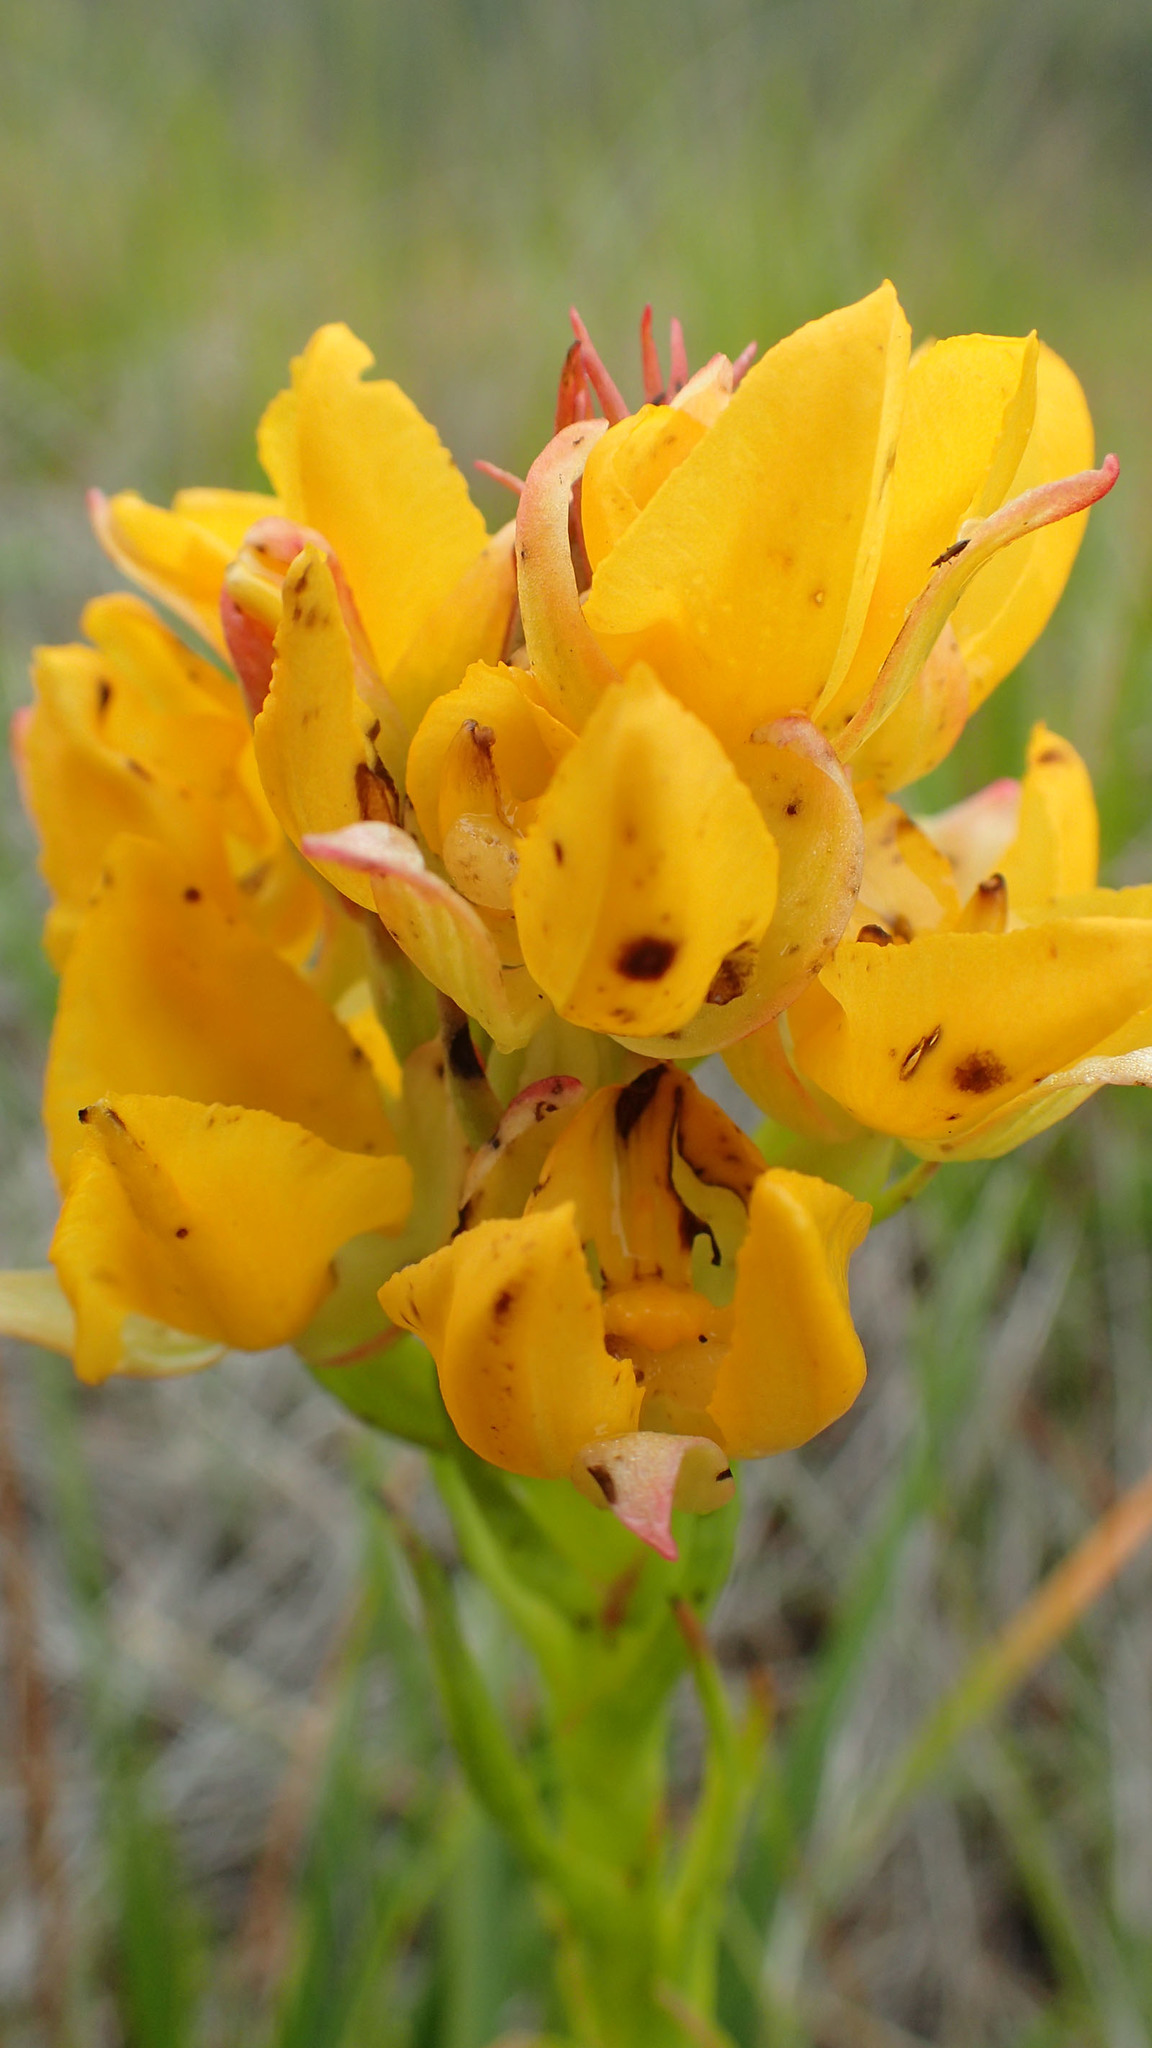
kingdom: Plantae
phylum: Tracheophyta
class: Liliopsida
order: Asparagales
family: Orchidaceae
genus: Ceratandra
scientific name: Ceratandra grandiflora
